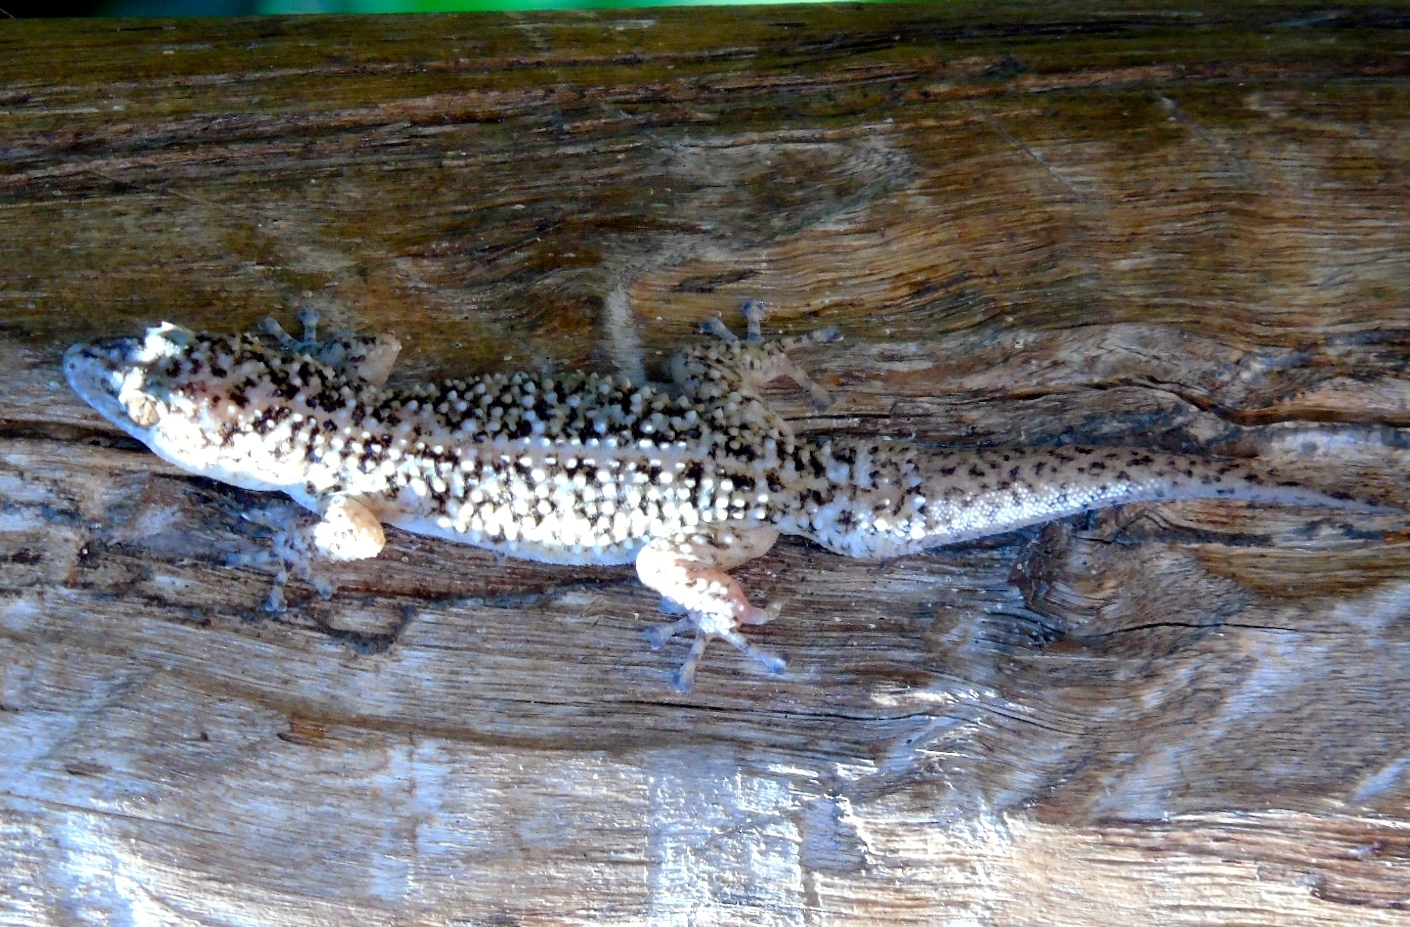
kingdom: Animalia
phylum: Chordata
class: Squamata
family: Phyllodactylidae
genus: Phyllodactylus
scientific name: Phyllodactylus tuberculosus
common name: Yellowbelly  gecko
